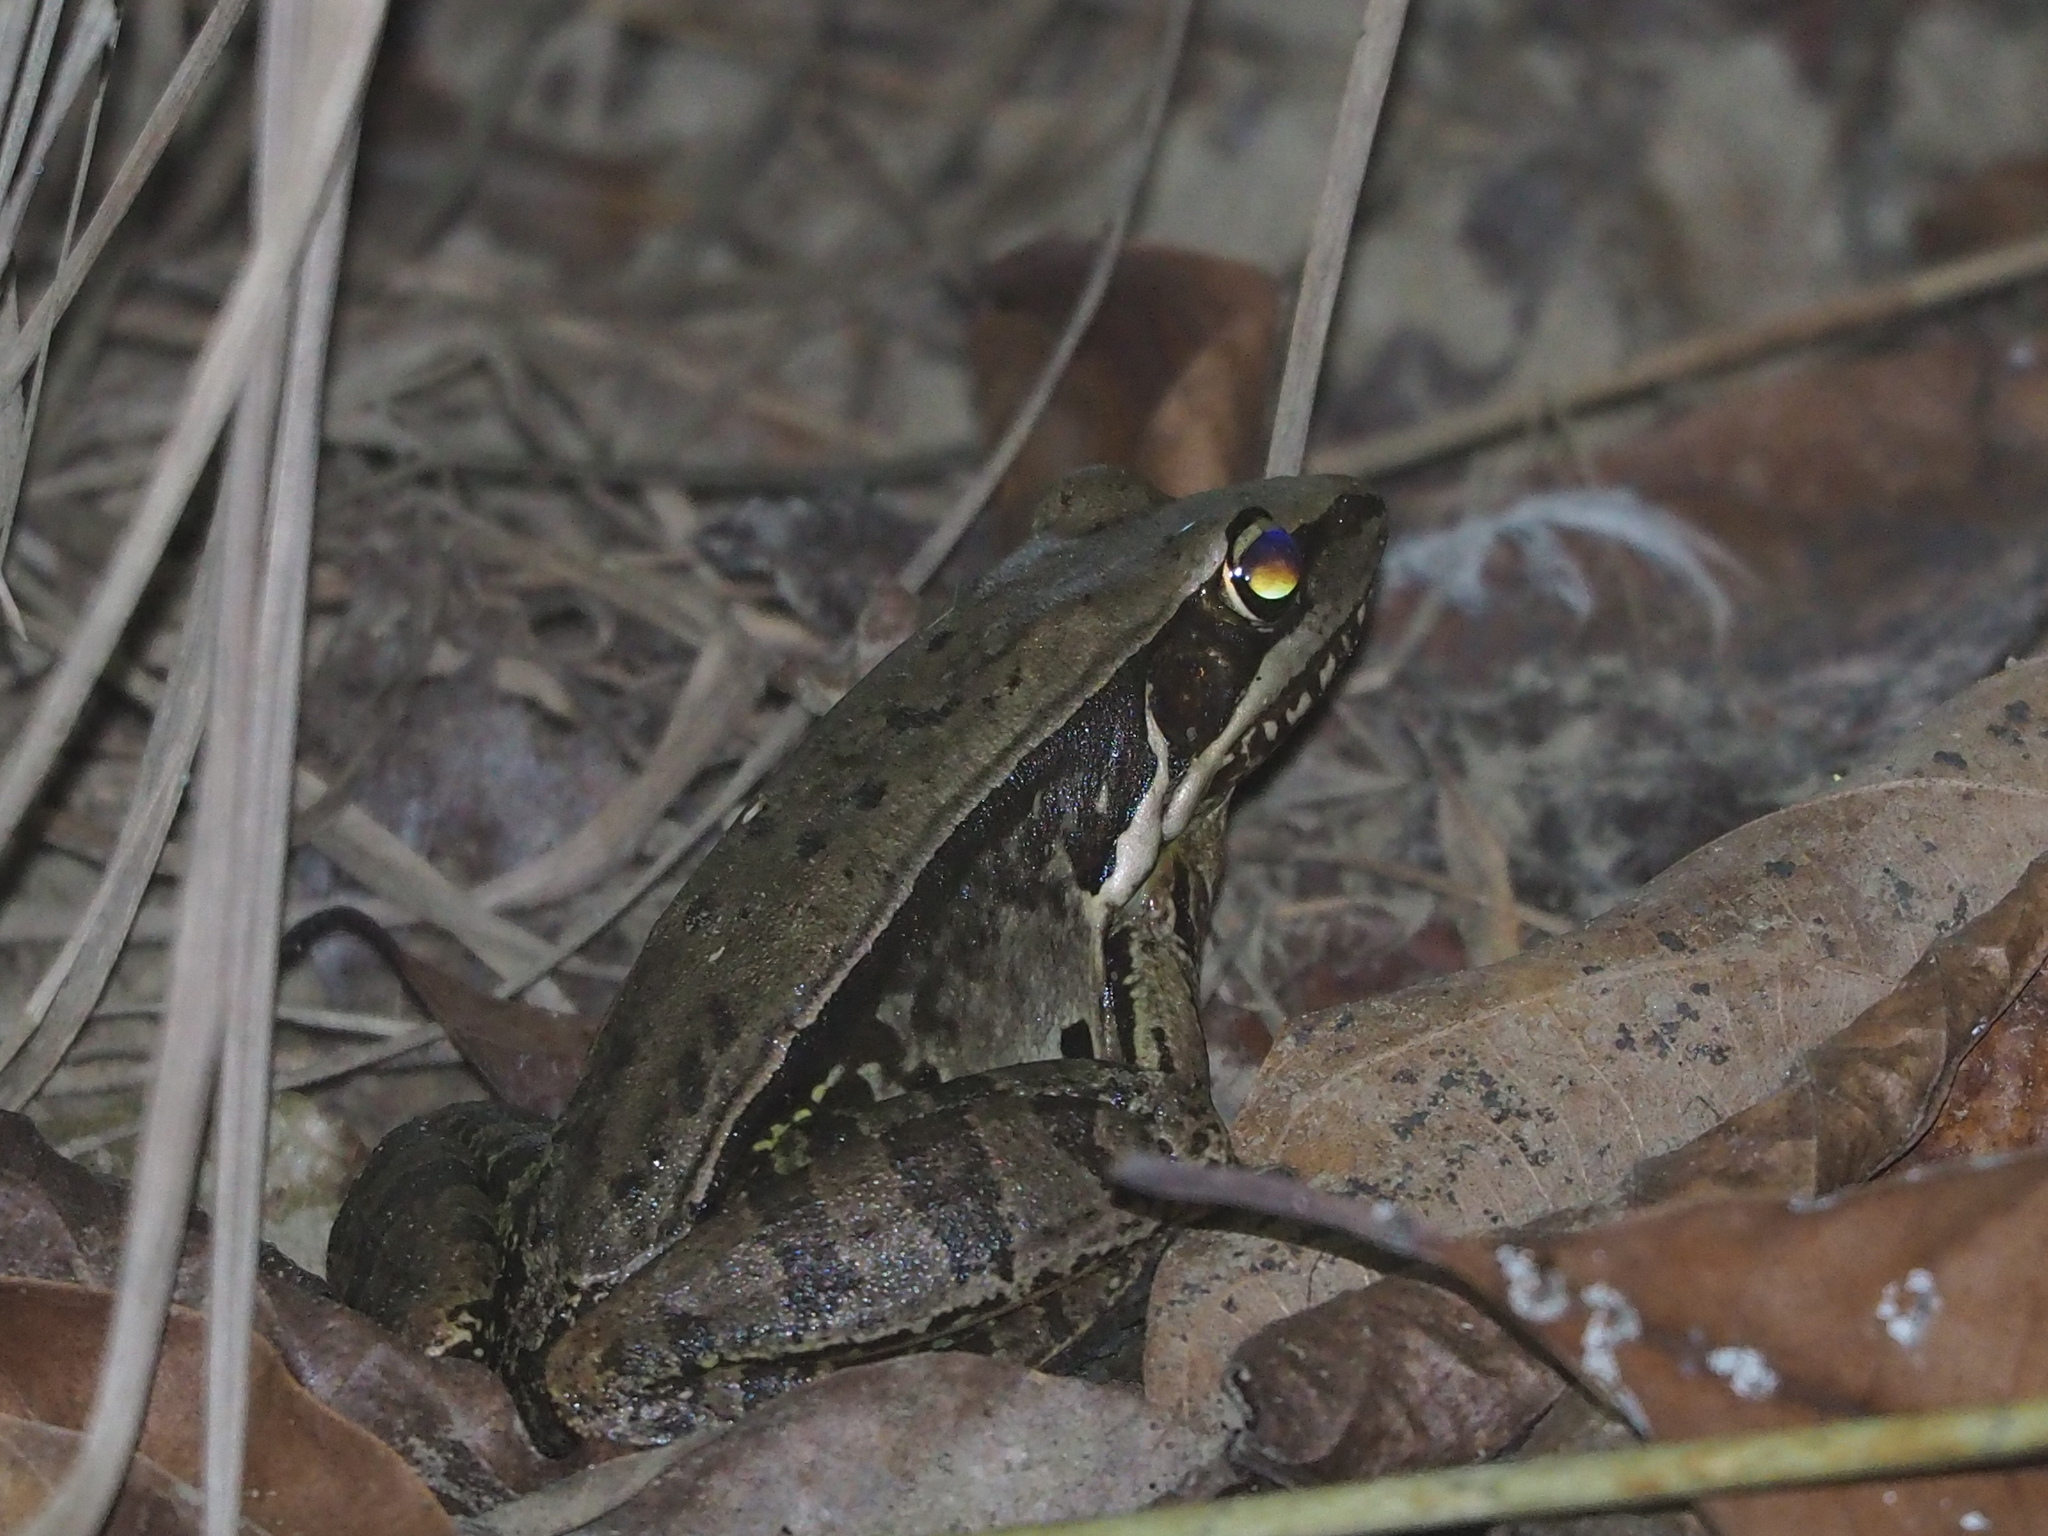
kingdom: Animalia
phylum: Chordata
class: Amphibia
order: Anura
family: Ranidae
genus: Sylvirana
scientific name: Sylvirana guentheri
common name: Guenther's amoy frog
